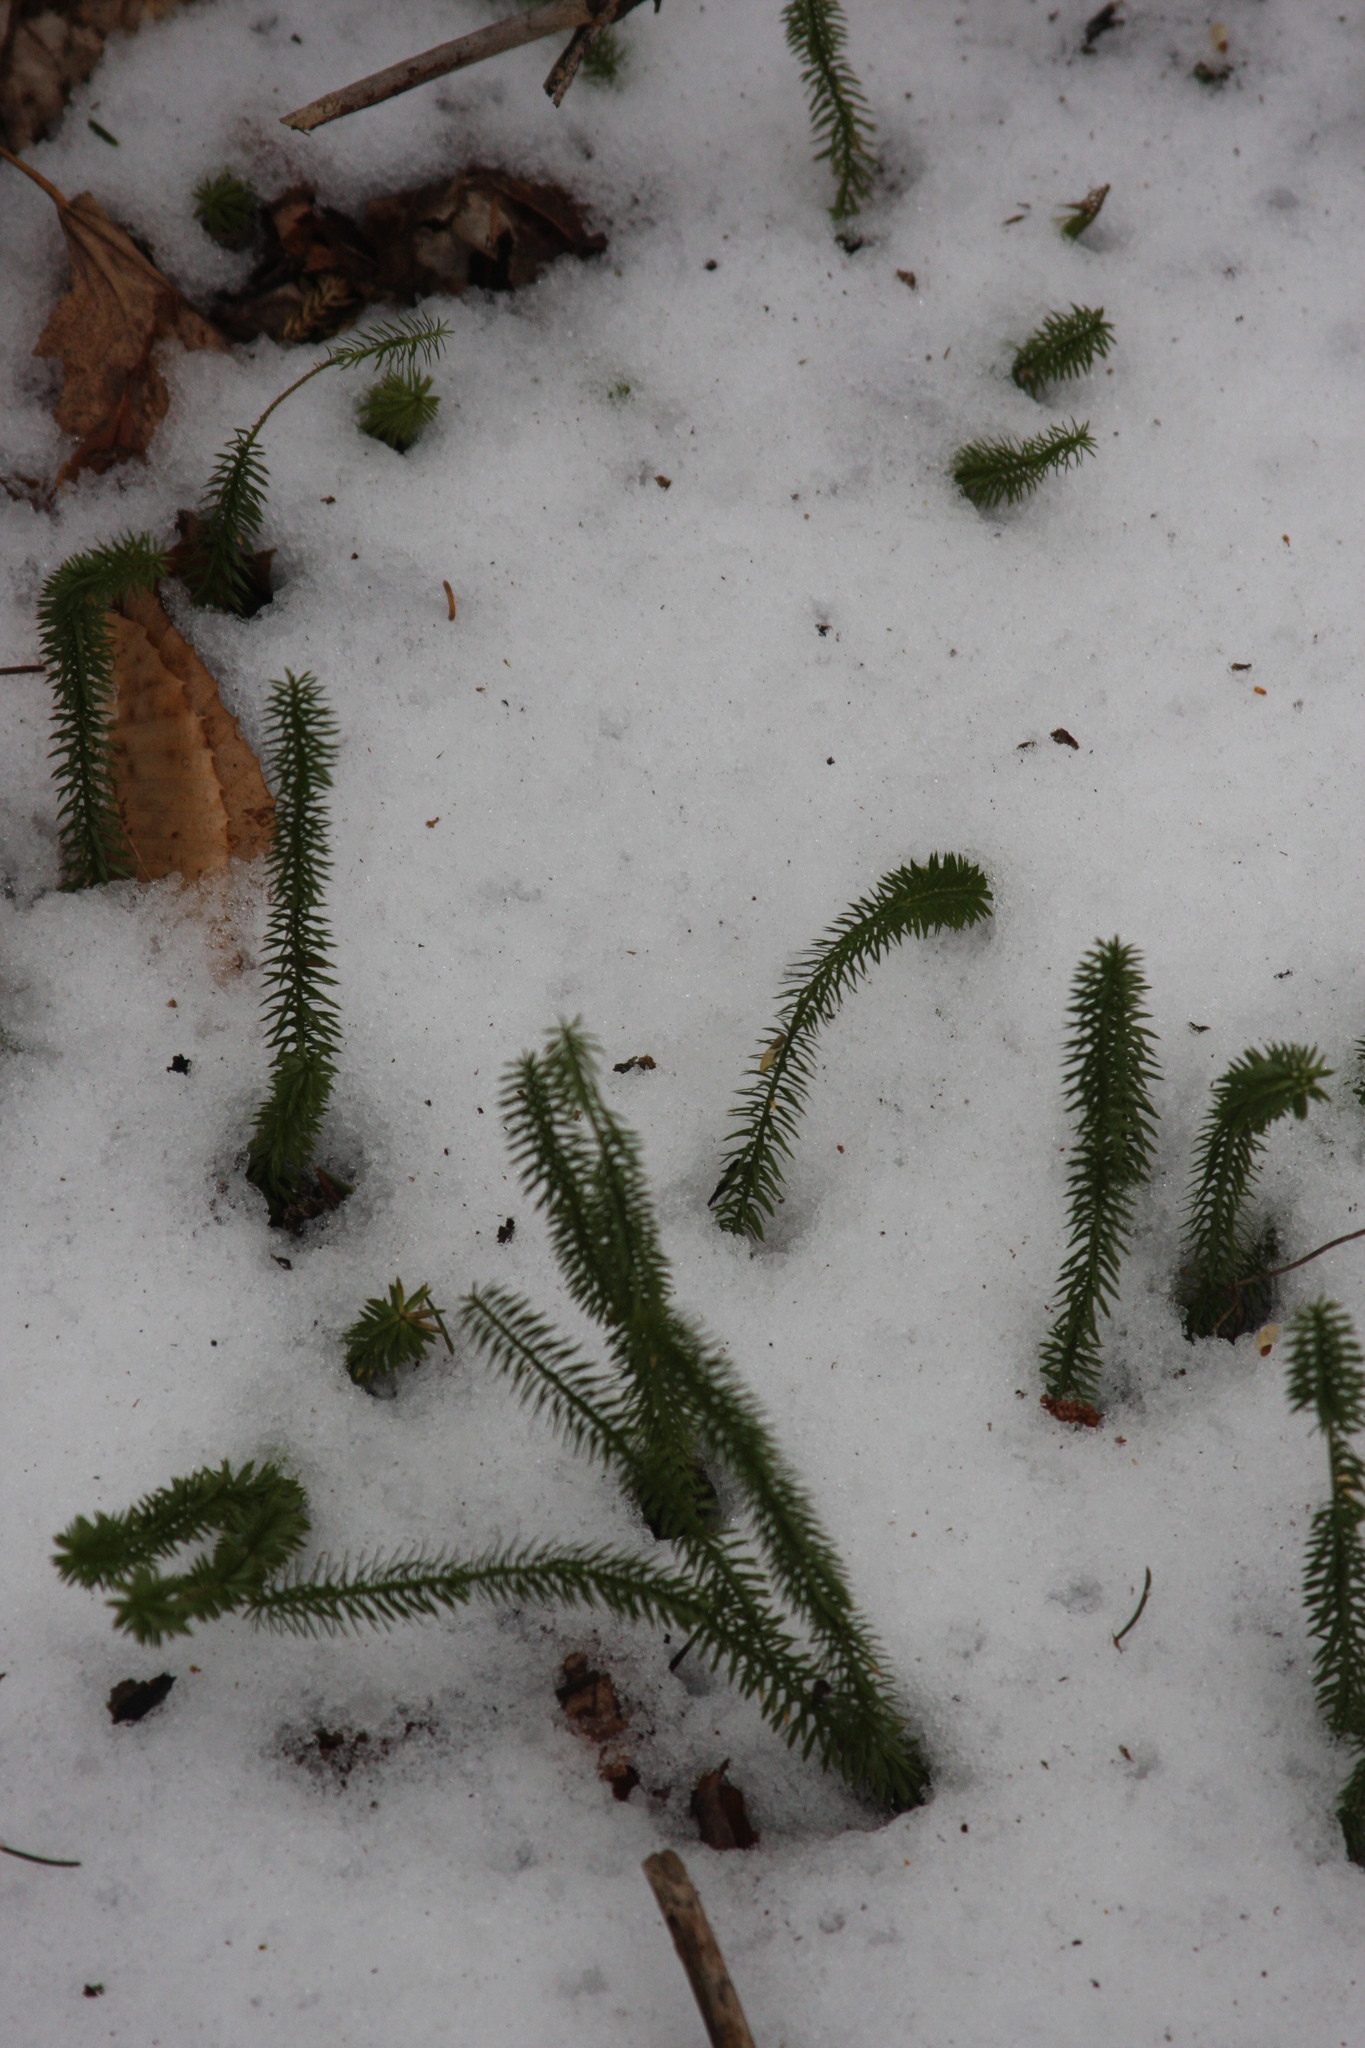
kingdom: Plantae
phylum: Tracheophyta
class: Lycopodiopsida
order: Lycopodiales
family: Lycopodiaceae
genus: Huperzia
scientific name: Huperzia lucidula
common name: Shining clubmoss
